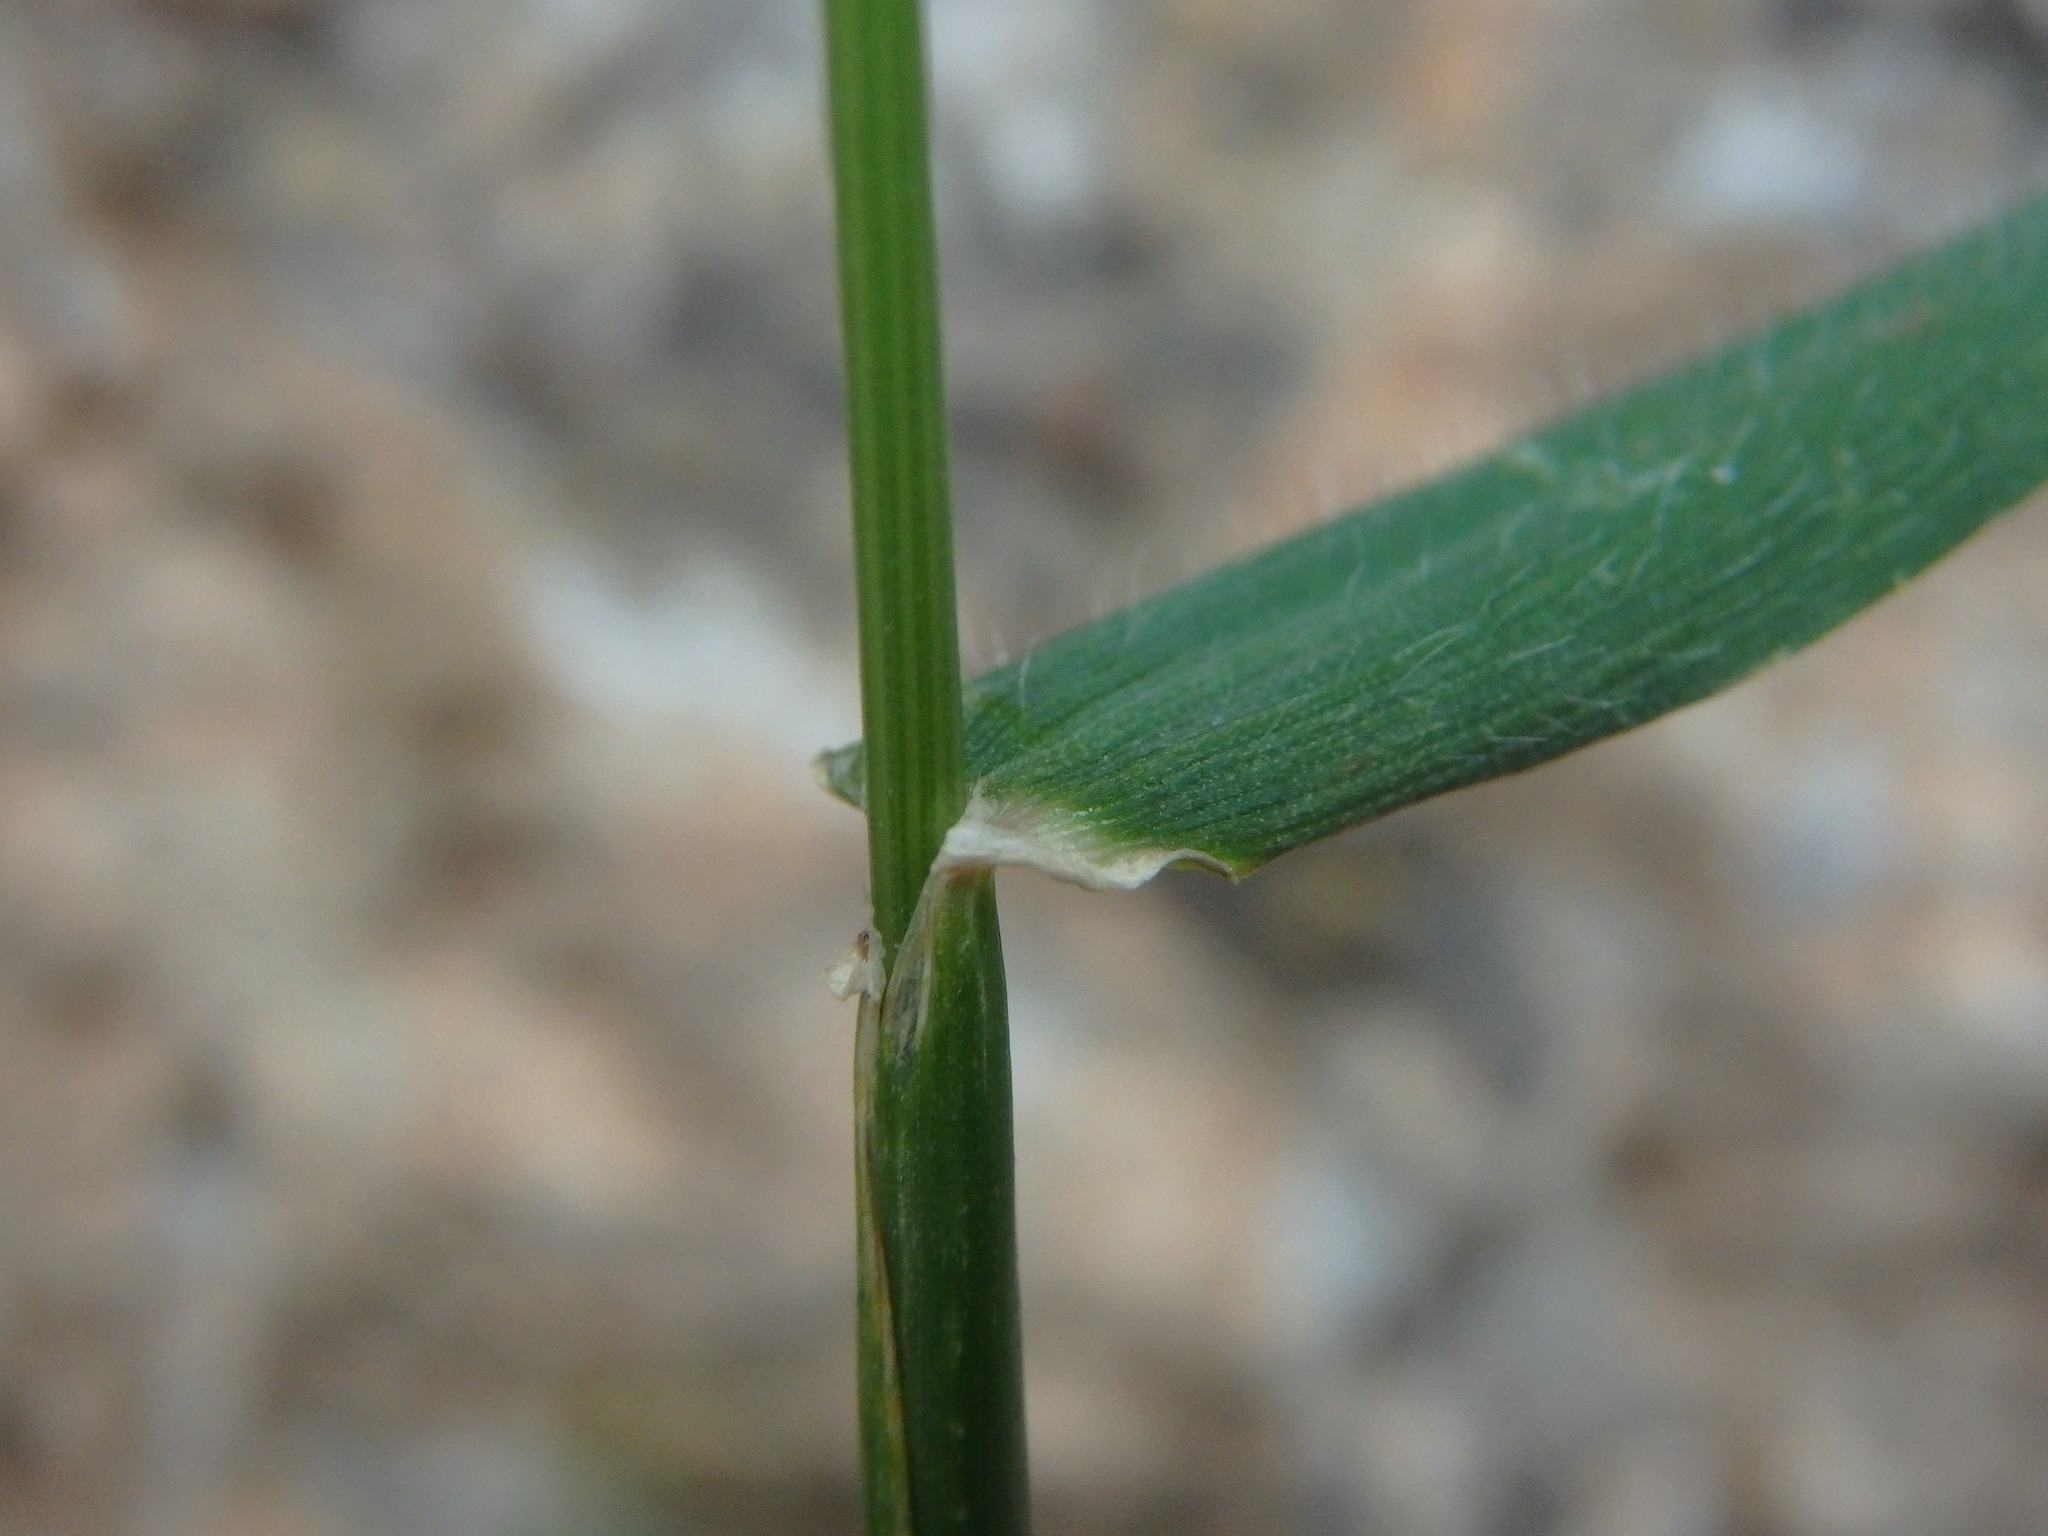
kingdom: Plantae
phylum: Tracheophyta
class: Liliopsida
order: Poales
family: Poaceae
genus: Hordeum
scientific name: Hordeum murinum
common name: Wall barley
